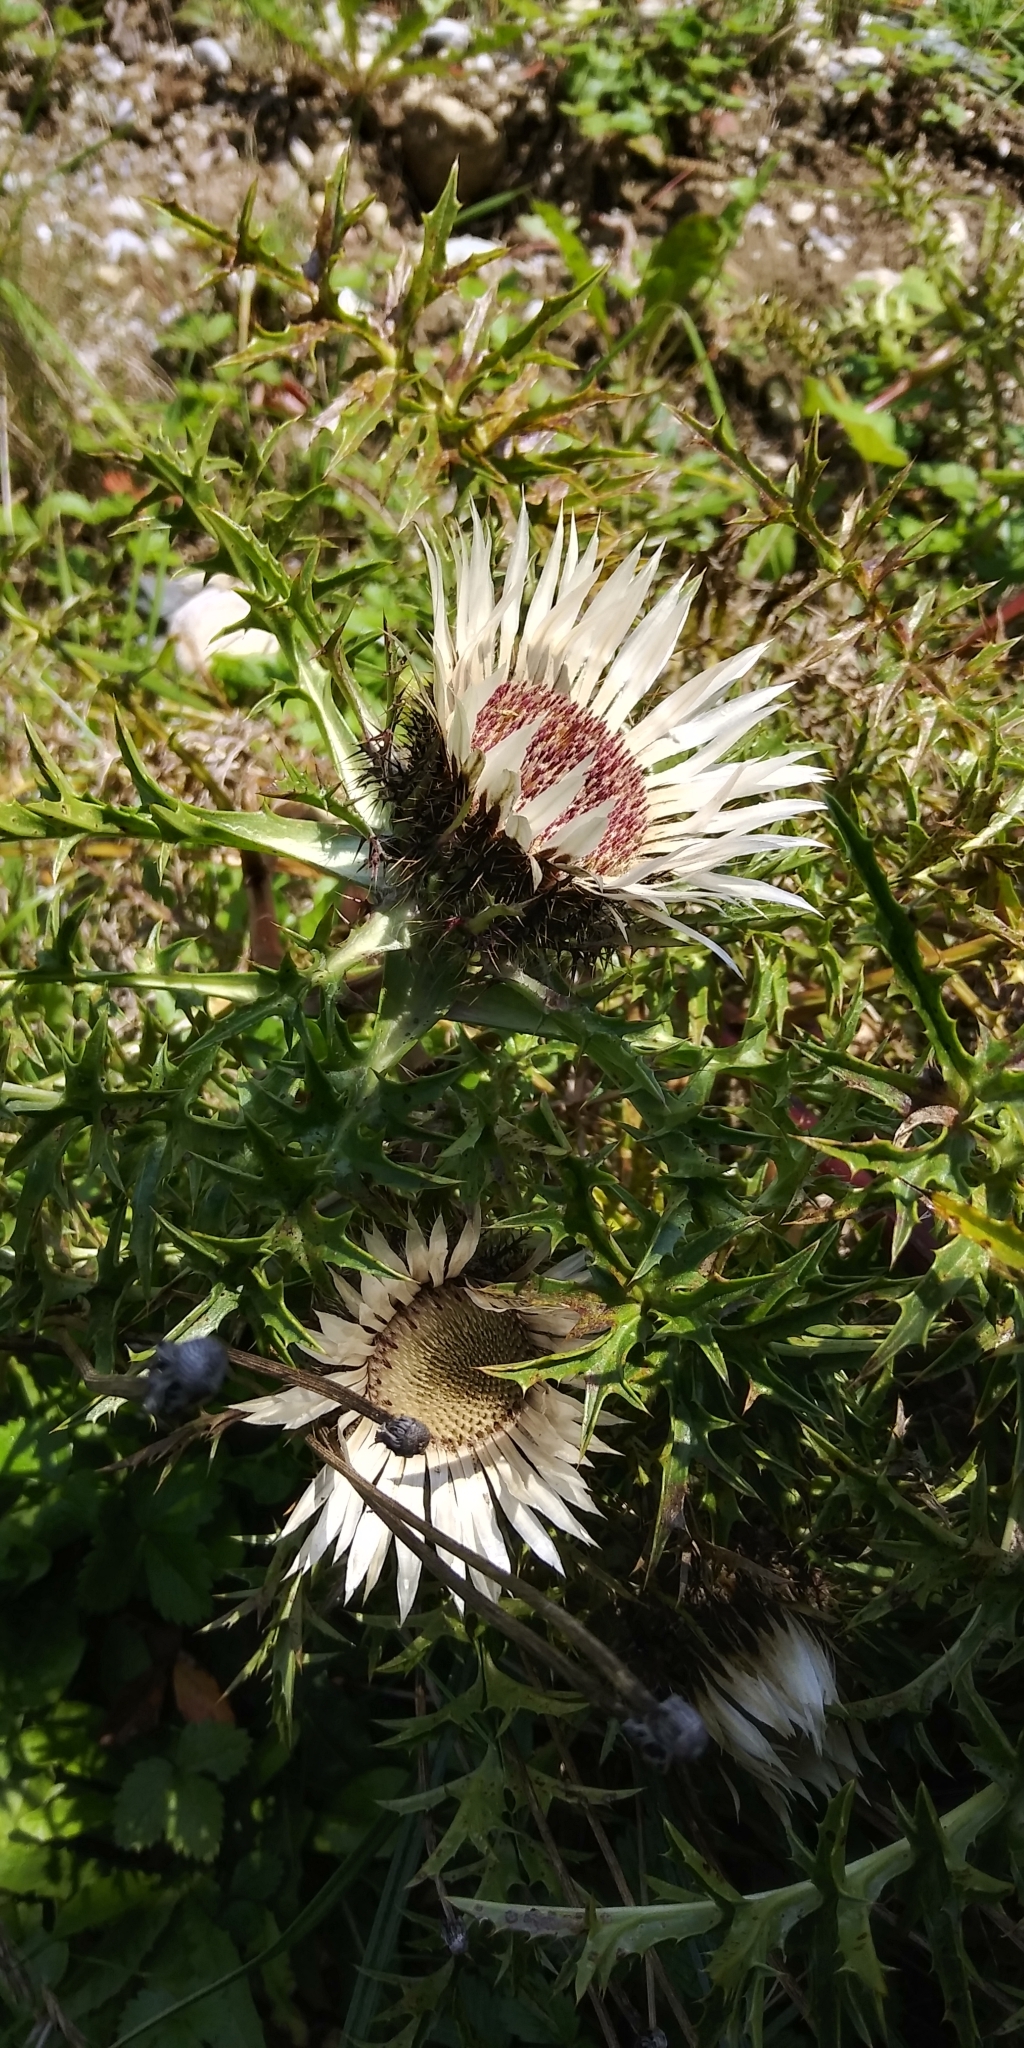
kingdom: Plantae
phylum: Tracheophyta
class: Magnoliopsida
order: Asterales
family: Asteraceae
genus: Carlina
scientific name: Carlina acaulis
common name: Stemless carline thistle
